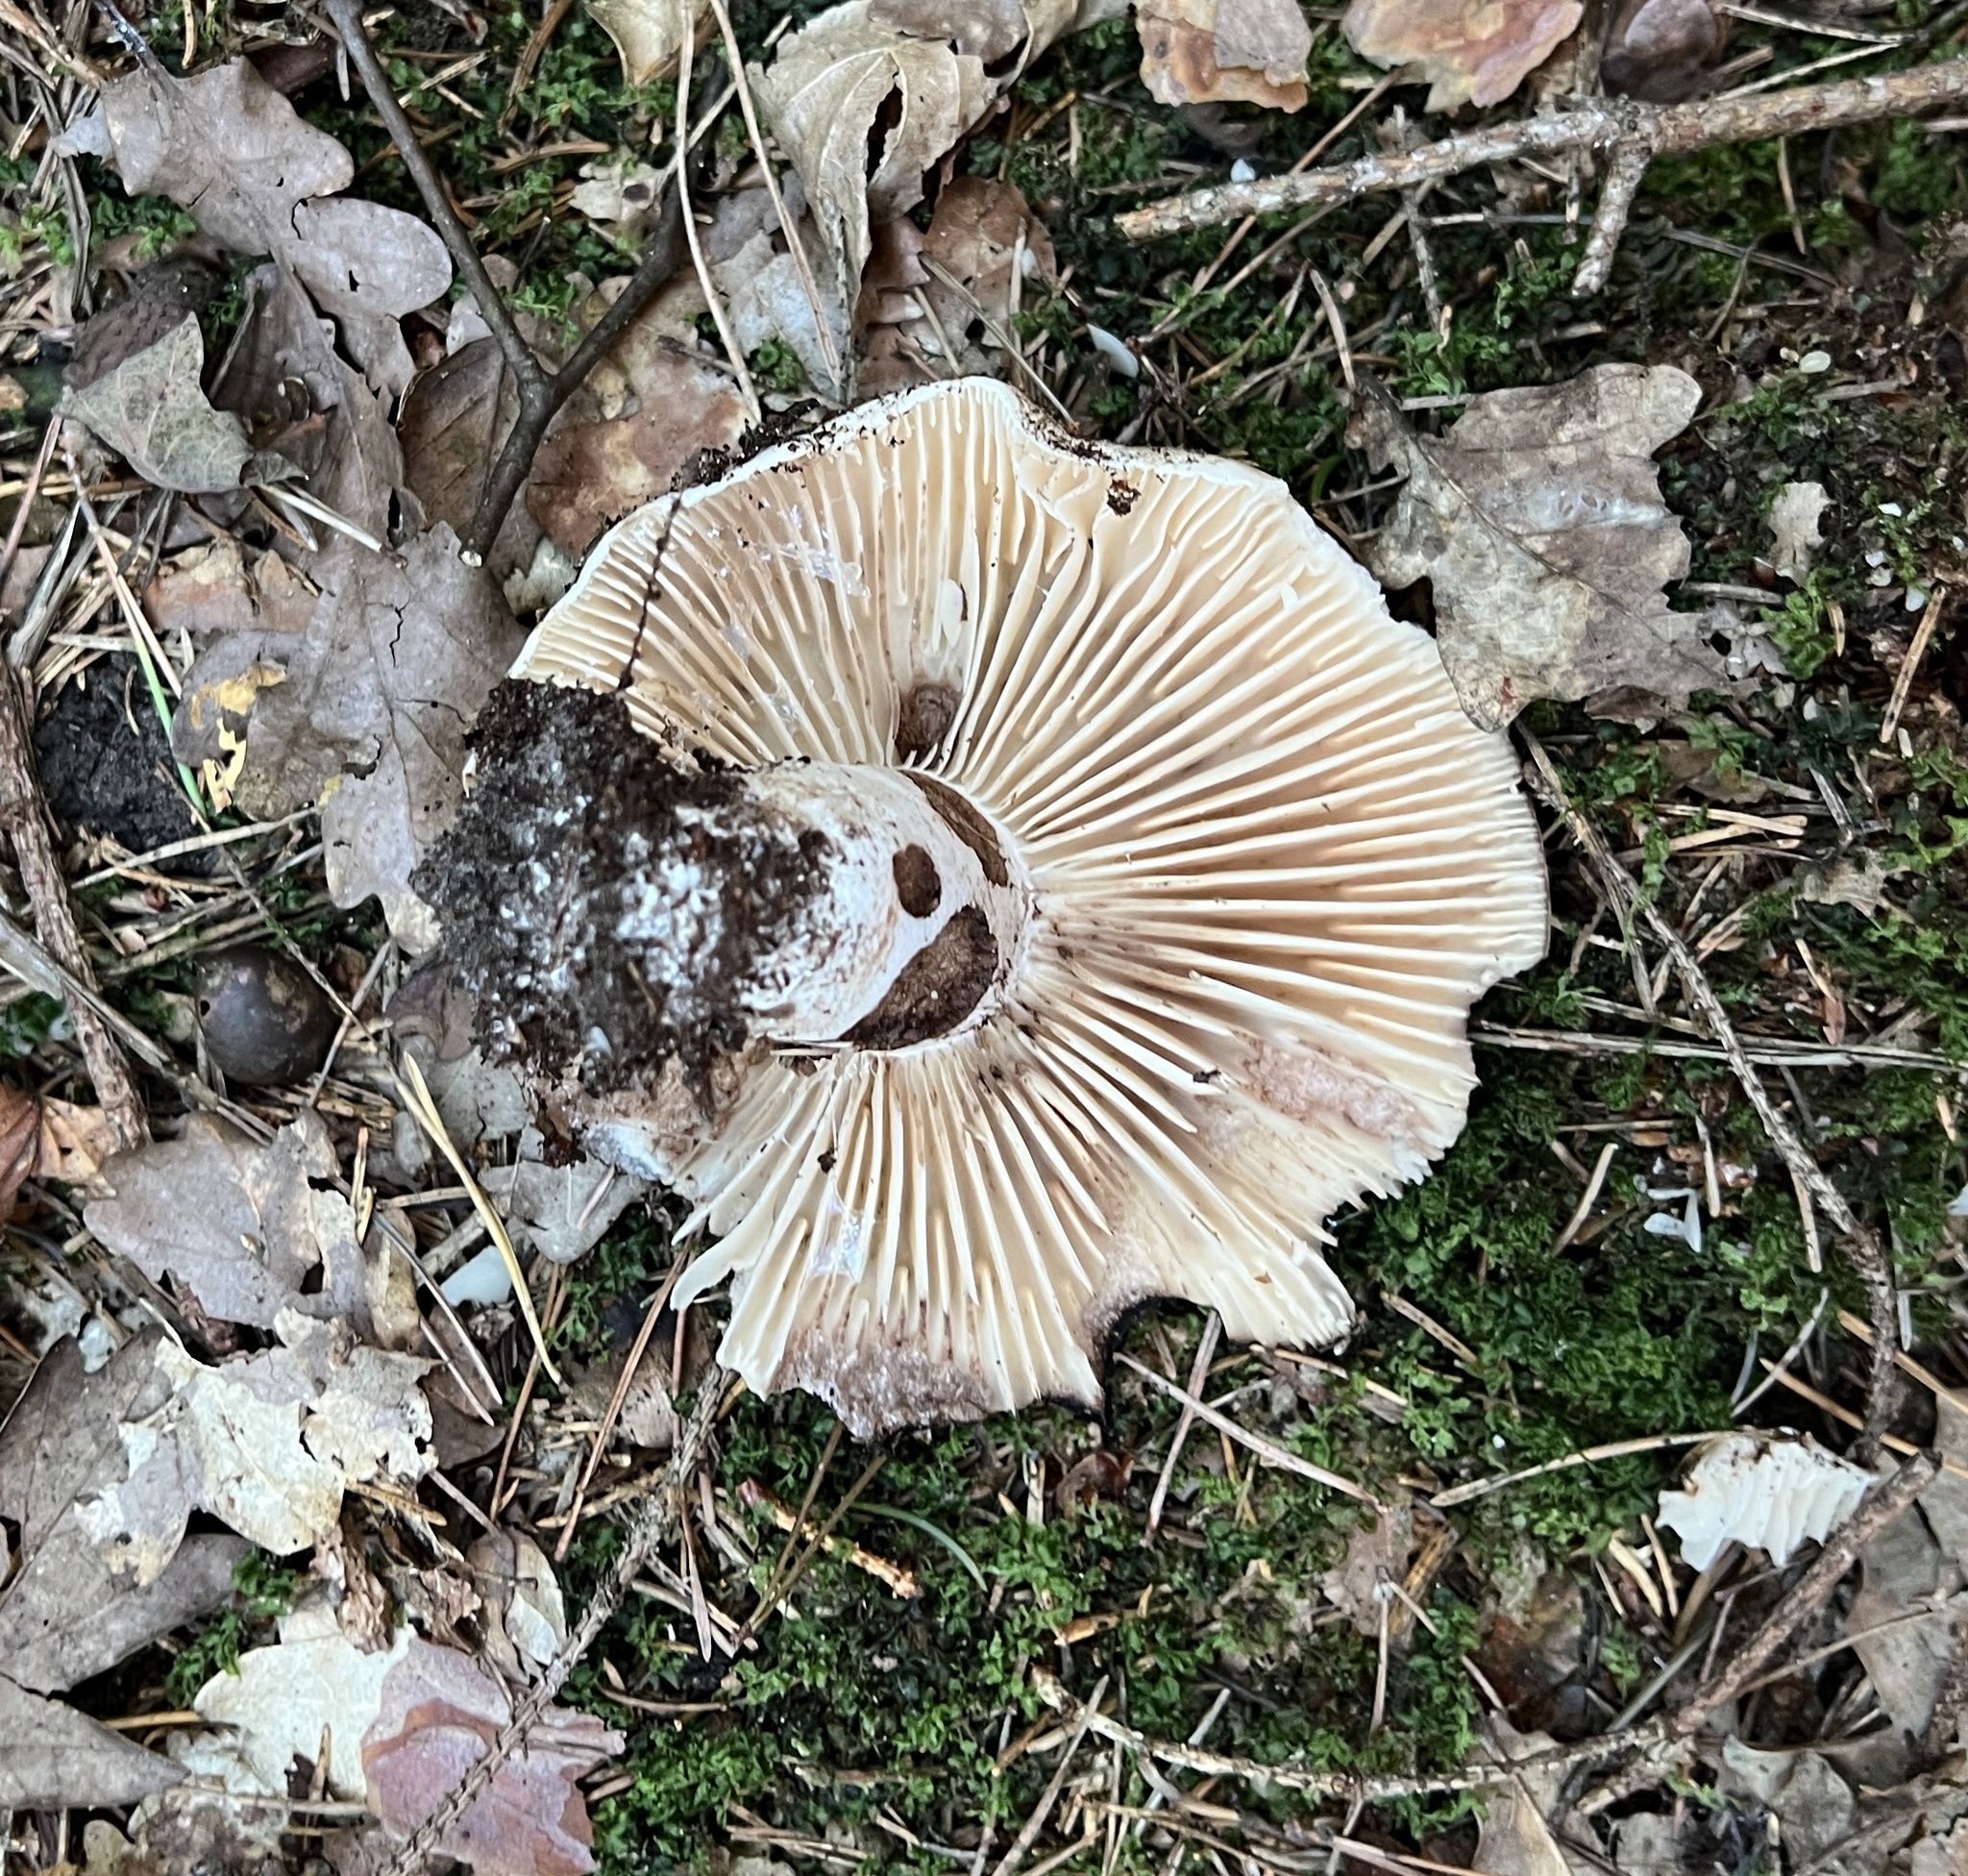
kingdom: Fungi
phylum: Basidiomycota
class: Agaricomycetes
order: Russulales
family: Russulaceae
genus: Russula
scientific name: Russula adusta
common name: Winecork brittlegill
